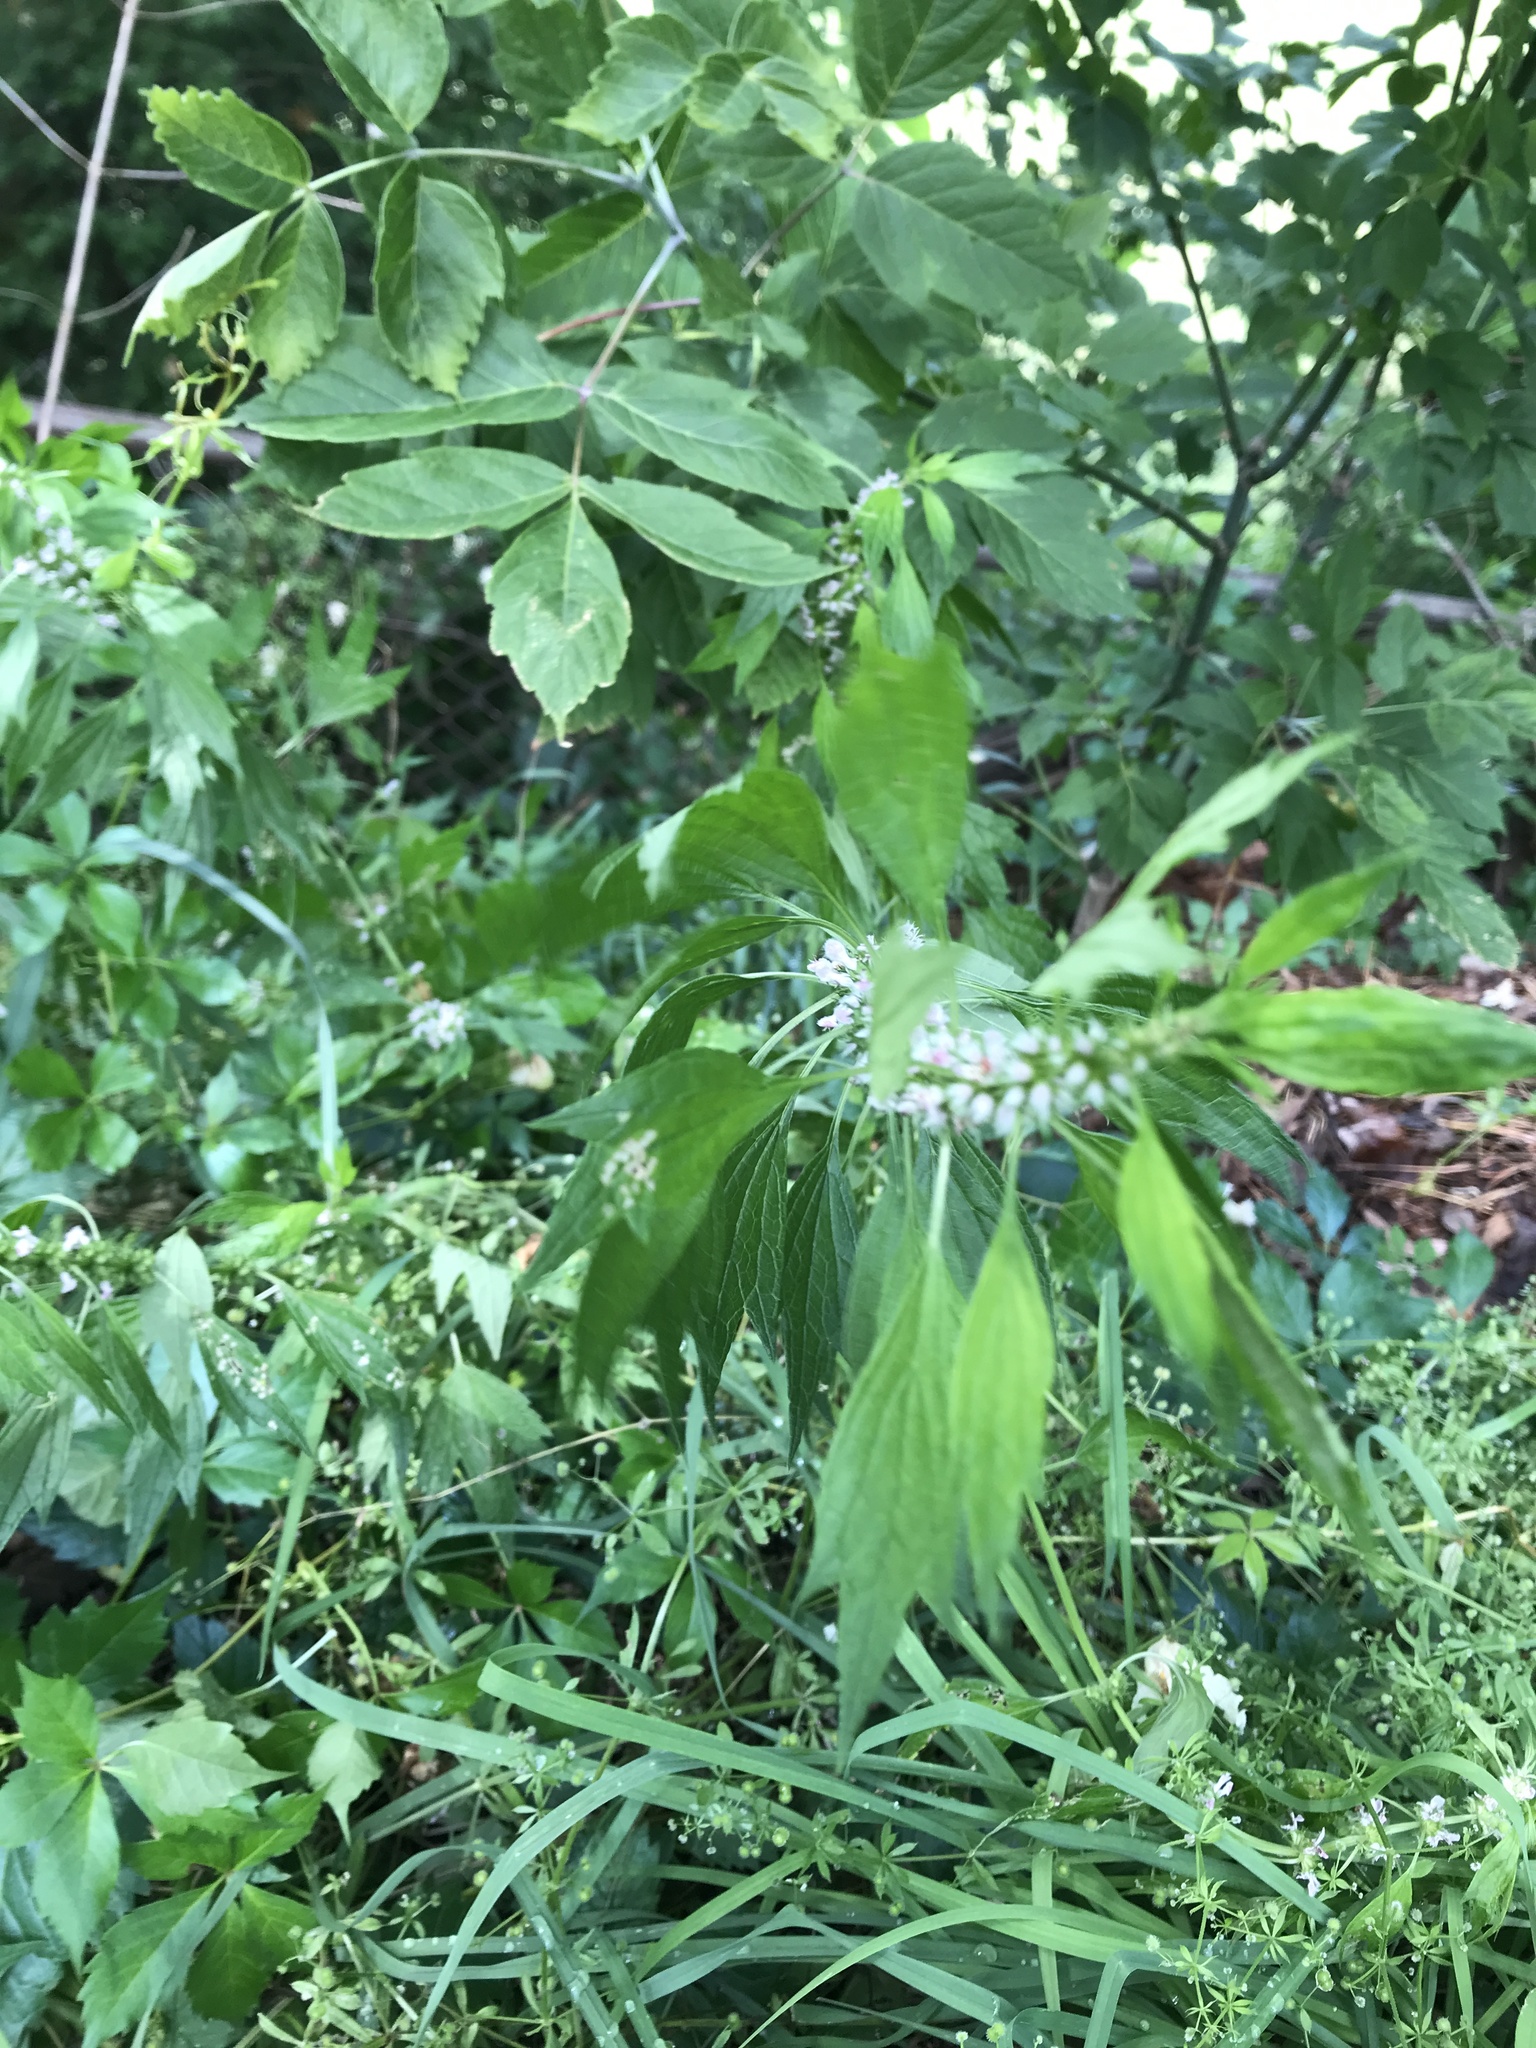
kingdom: Plantae
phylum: Tracheophyta
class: Magnoliopsida
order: Lamiales
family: Lamiaceae
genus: Leonurus
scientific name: Leonurus cardiaca
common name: Motherwort
